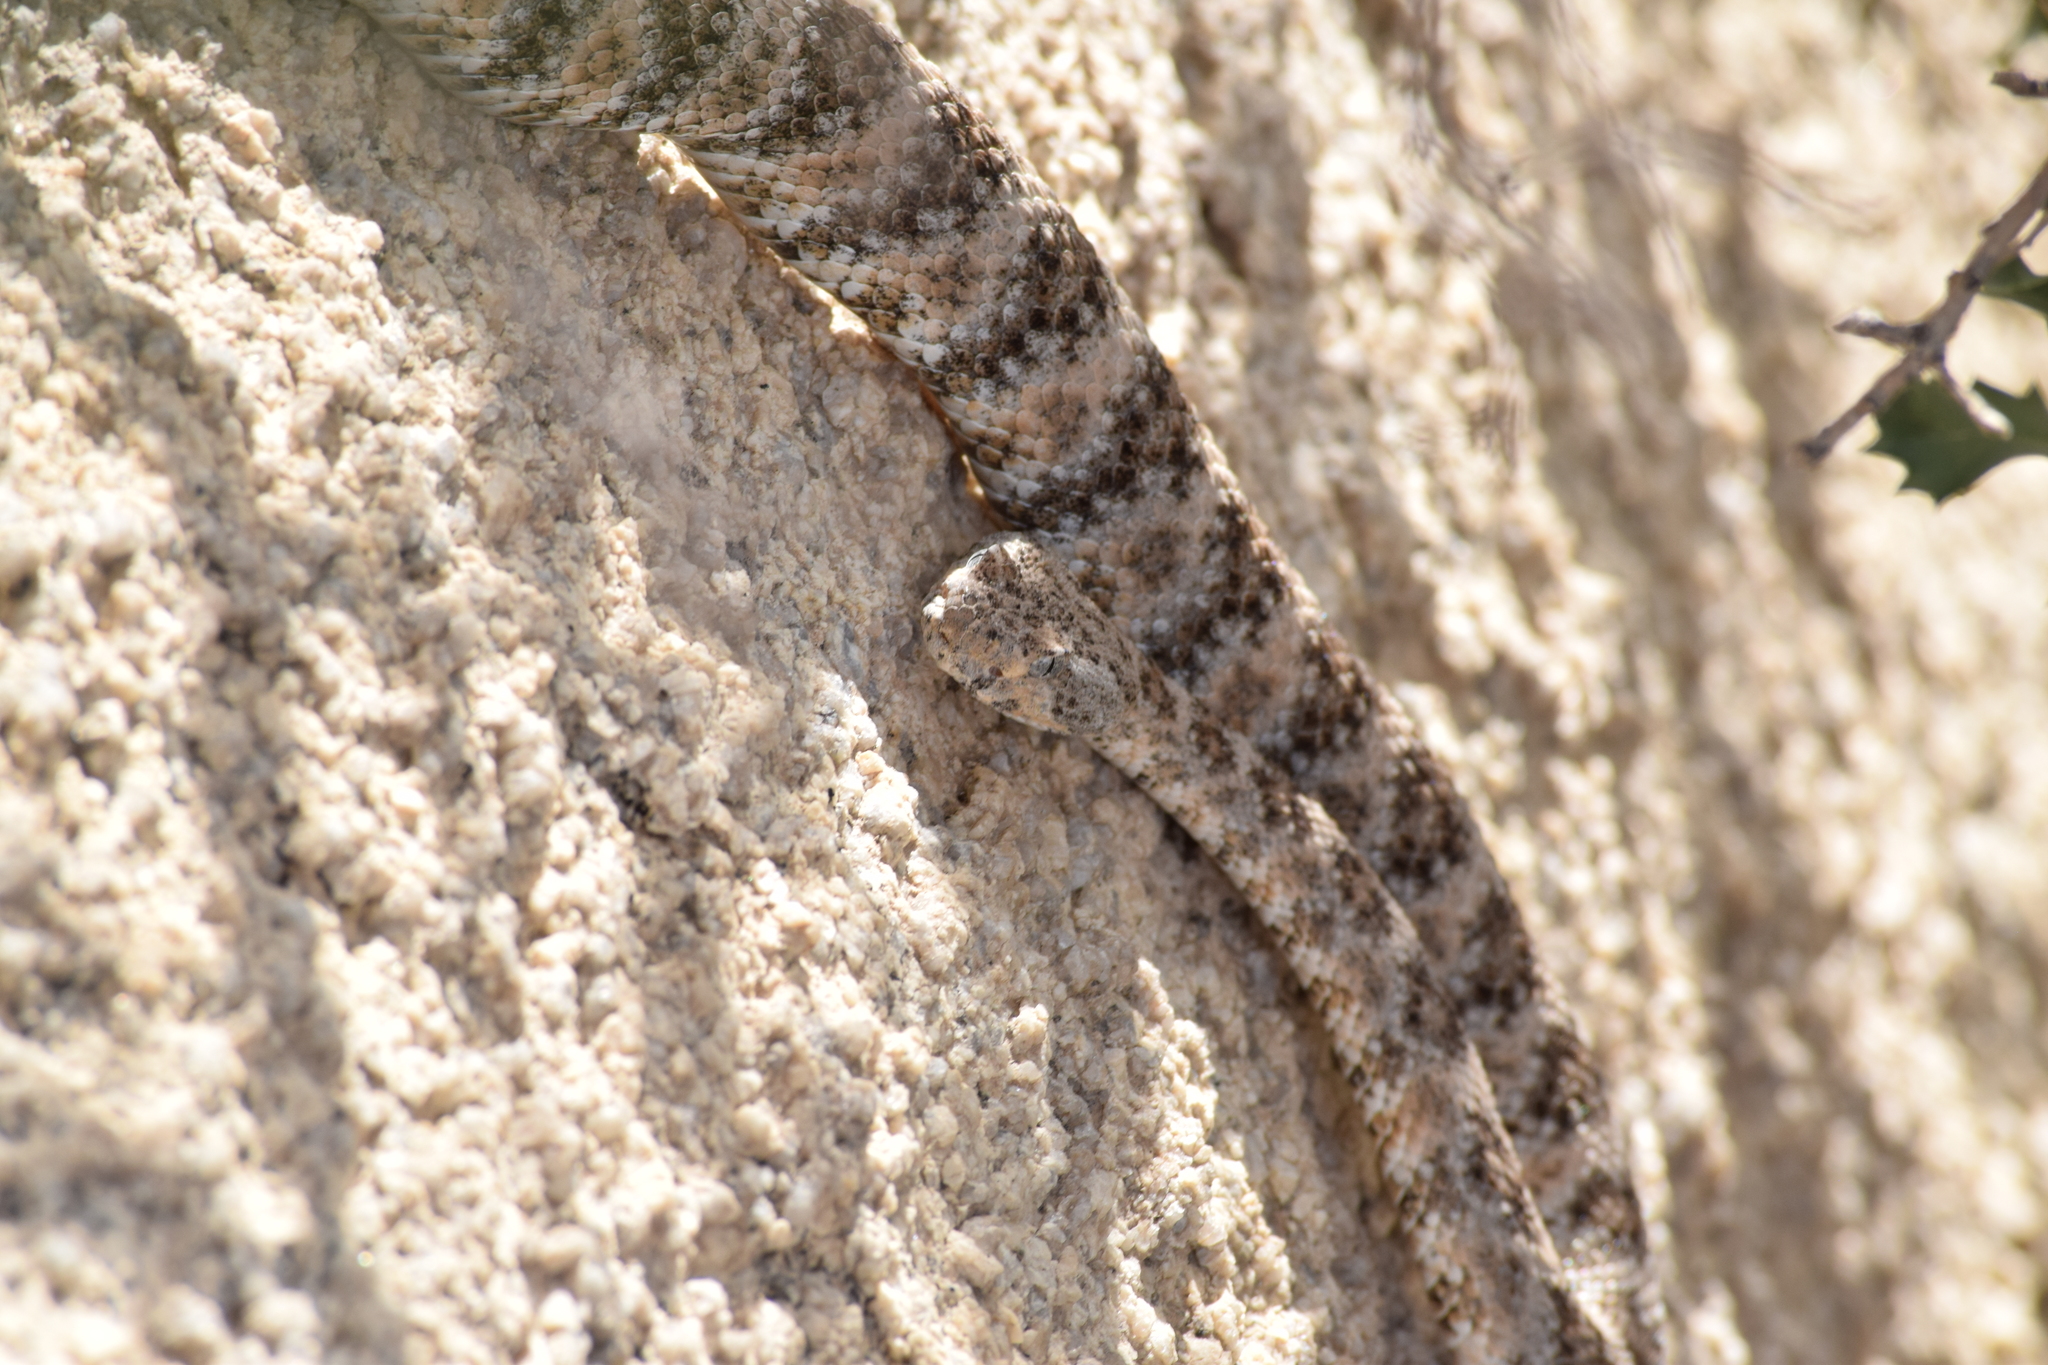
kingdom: Animalia
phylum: Chordata
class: Squamata
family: Viperidae
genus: Crotalus
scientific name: Crotalus pyrrhus
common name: Southwestern speckled rattlesnake
